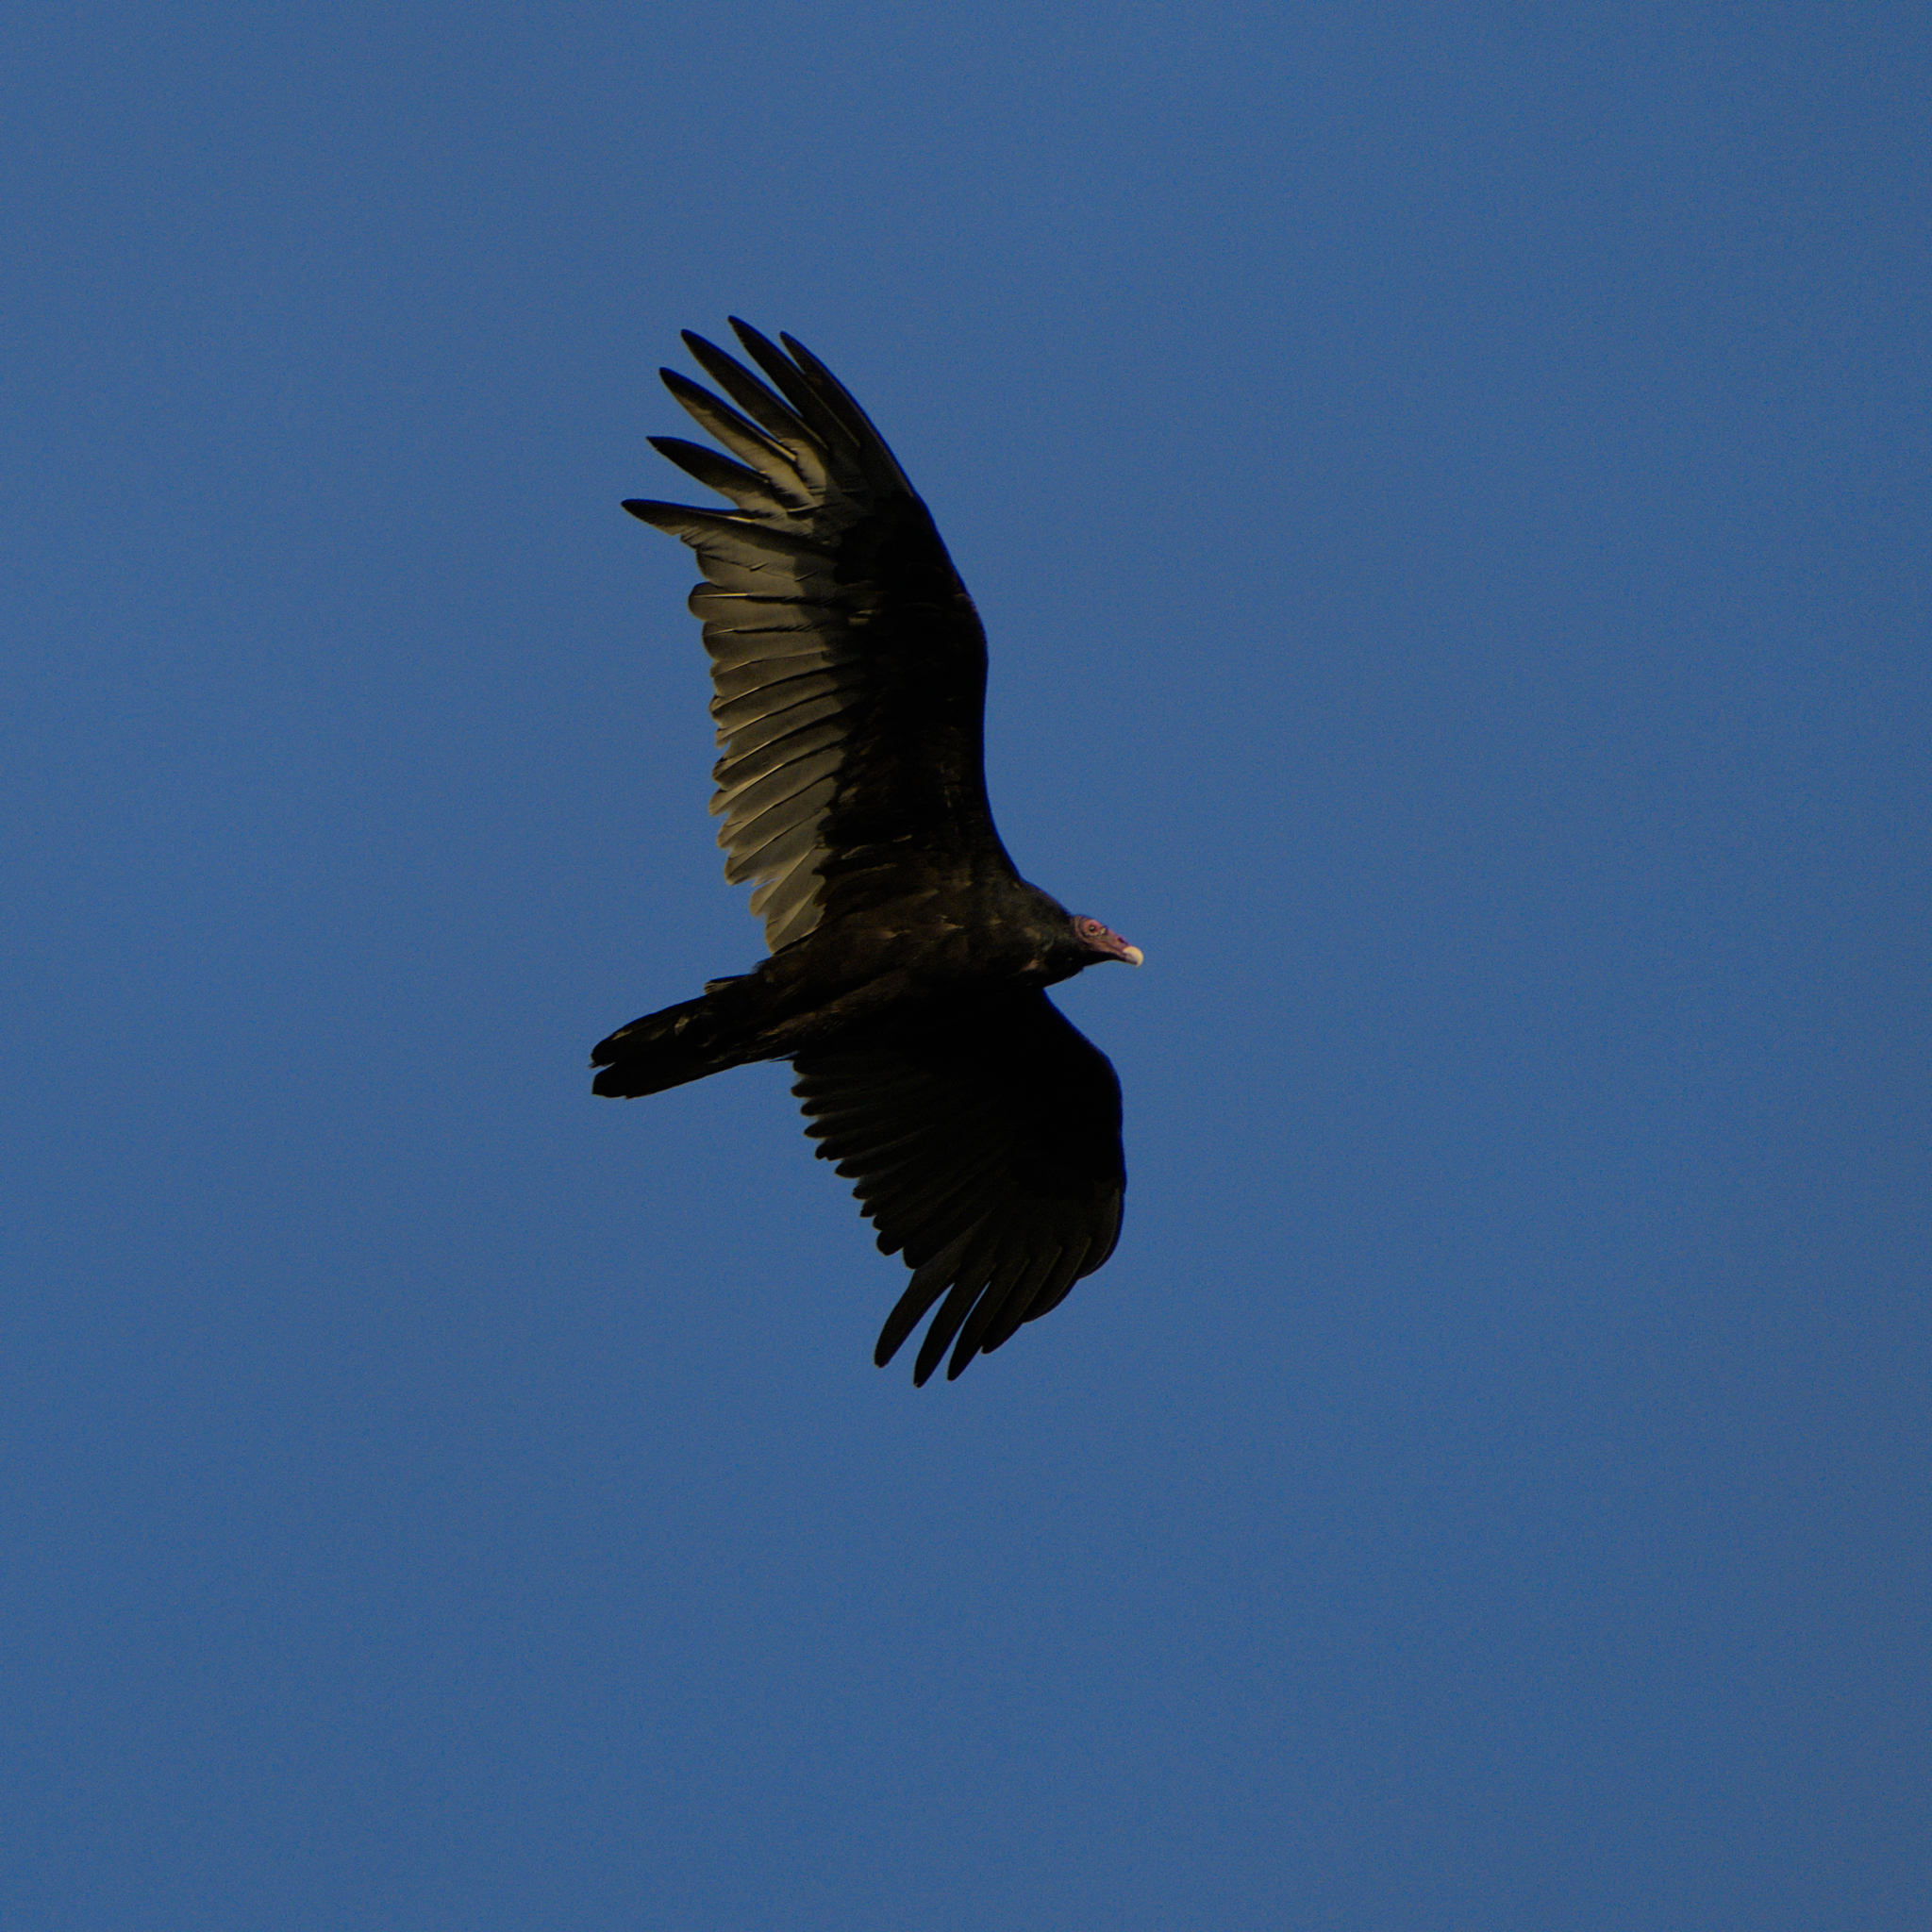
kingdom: Animalia
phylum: Chordata
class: Aves
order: Accipitriformes
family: Cathartidae
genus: Cathartes
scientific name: Cathartes aura
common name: Turkey vulture
